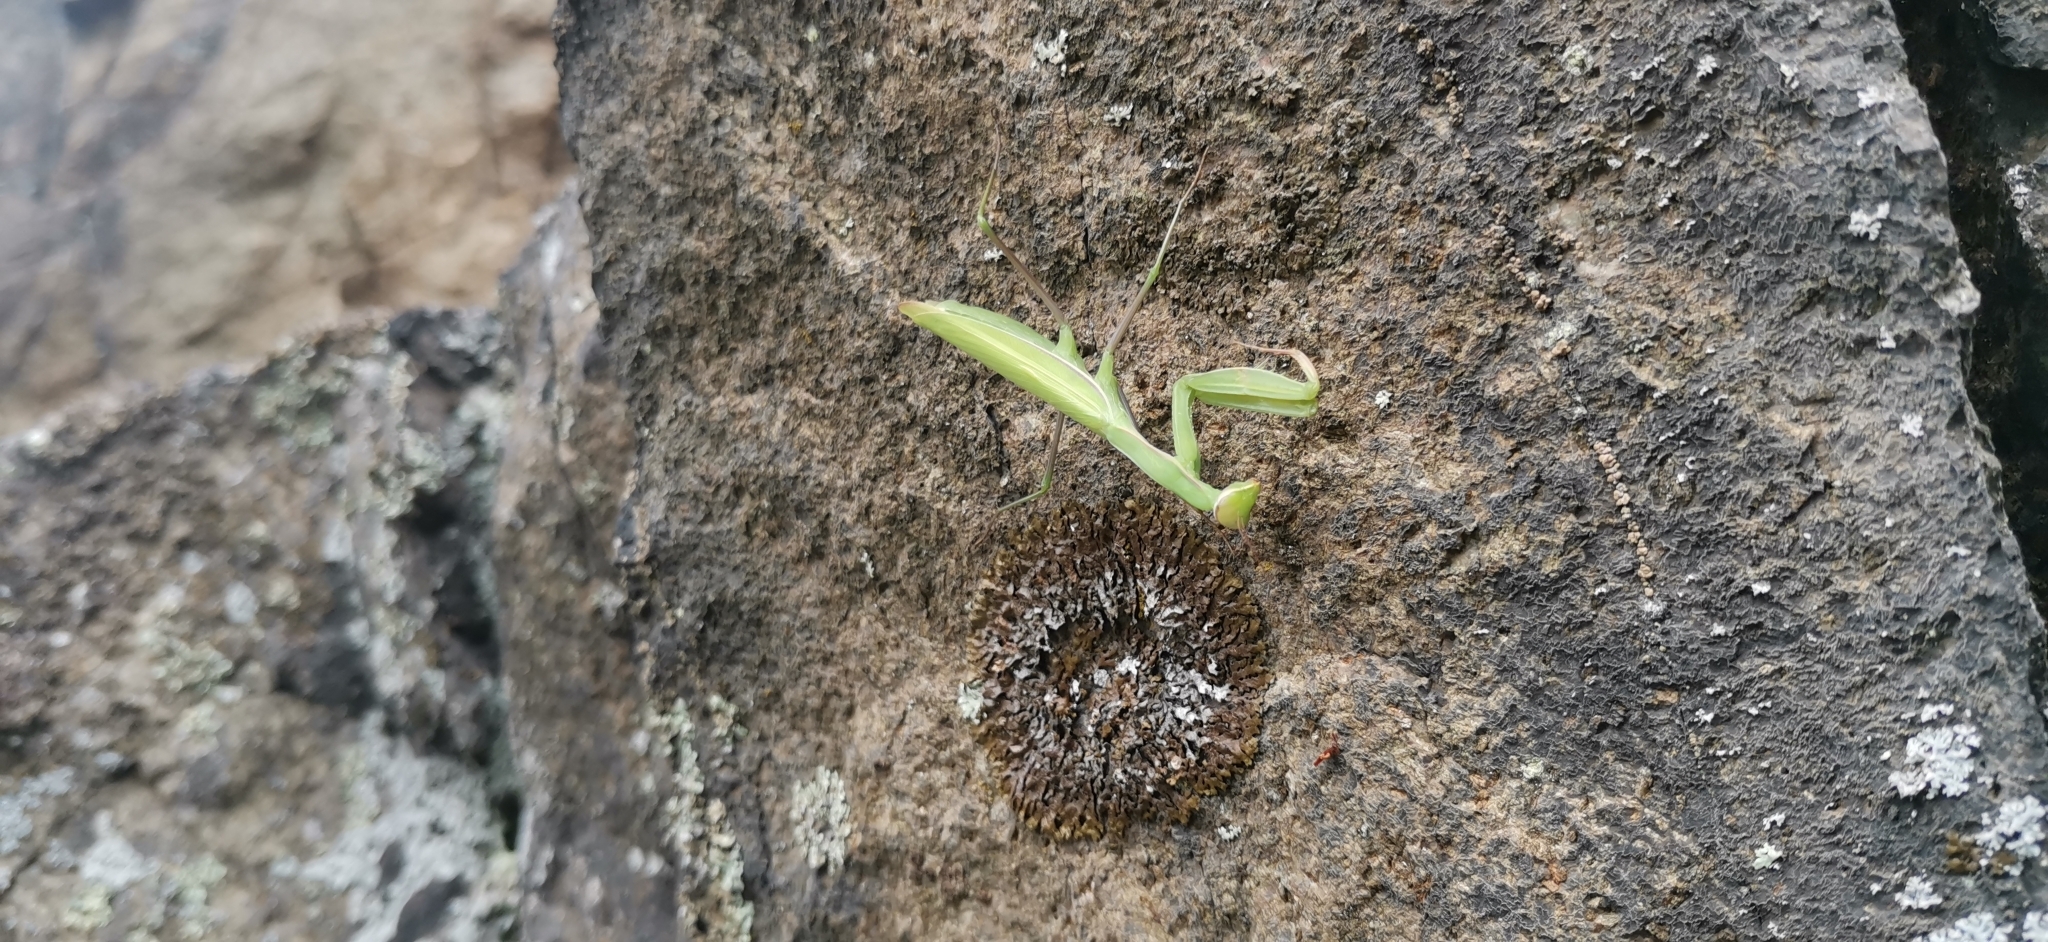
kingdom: Animalia
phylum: Arthropoda
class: Insecta
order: Mantodea
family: Mantidae
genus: Mantis
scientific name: Mantis religiosa
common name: Praying mantis
